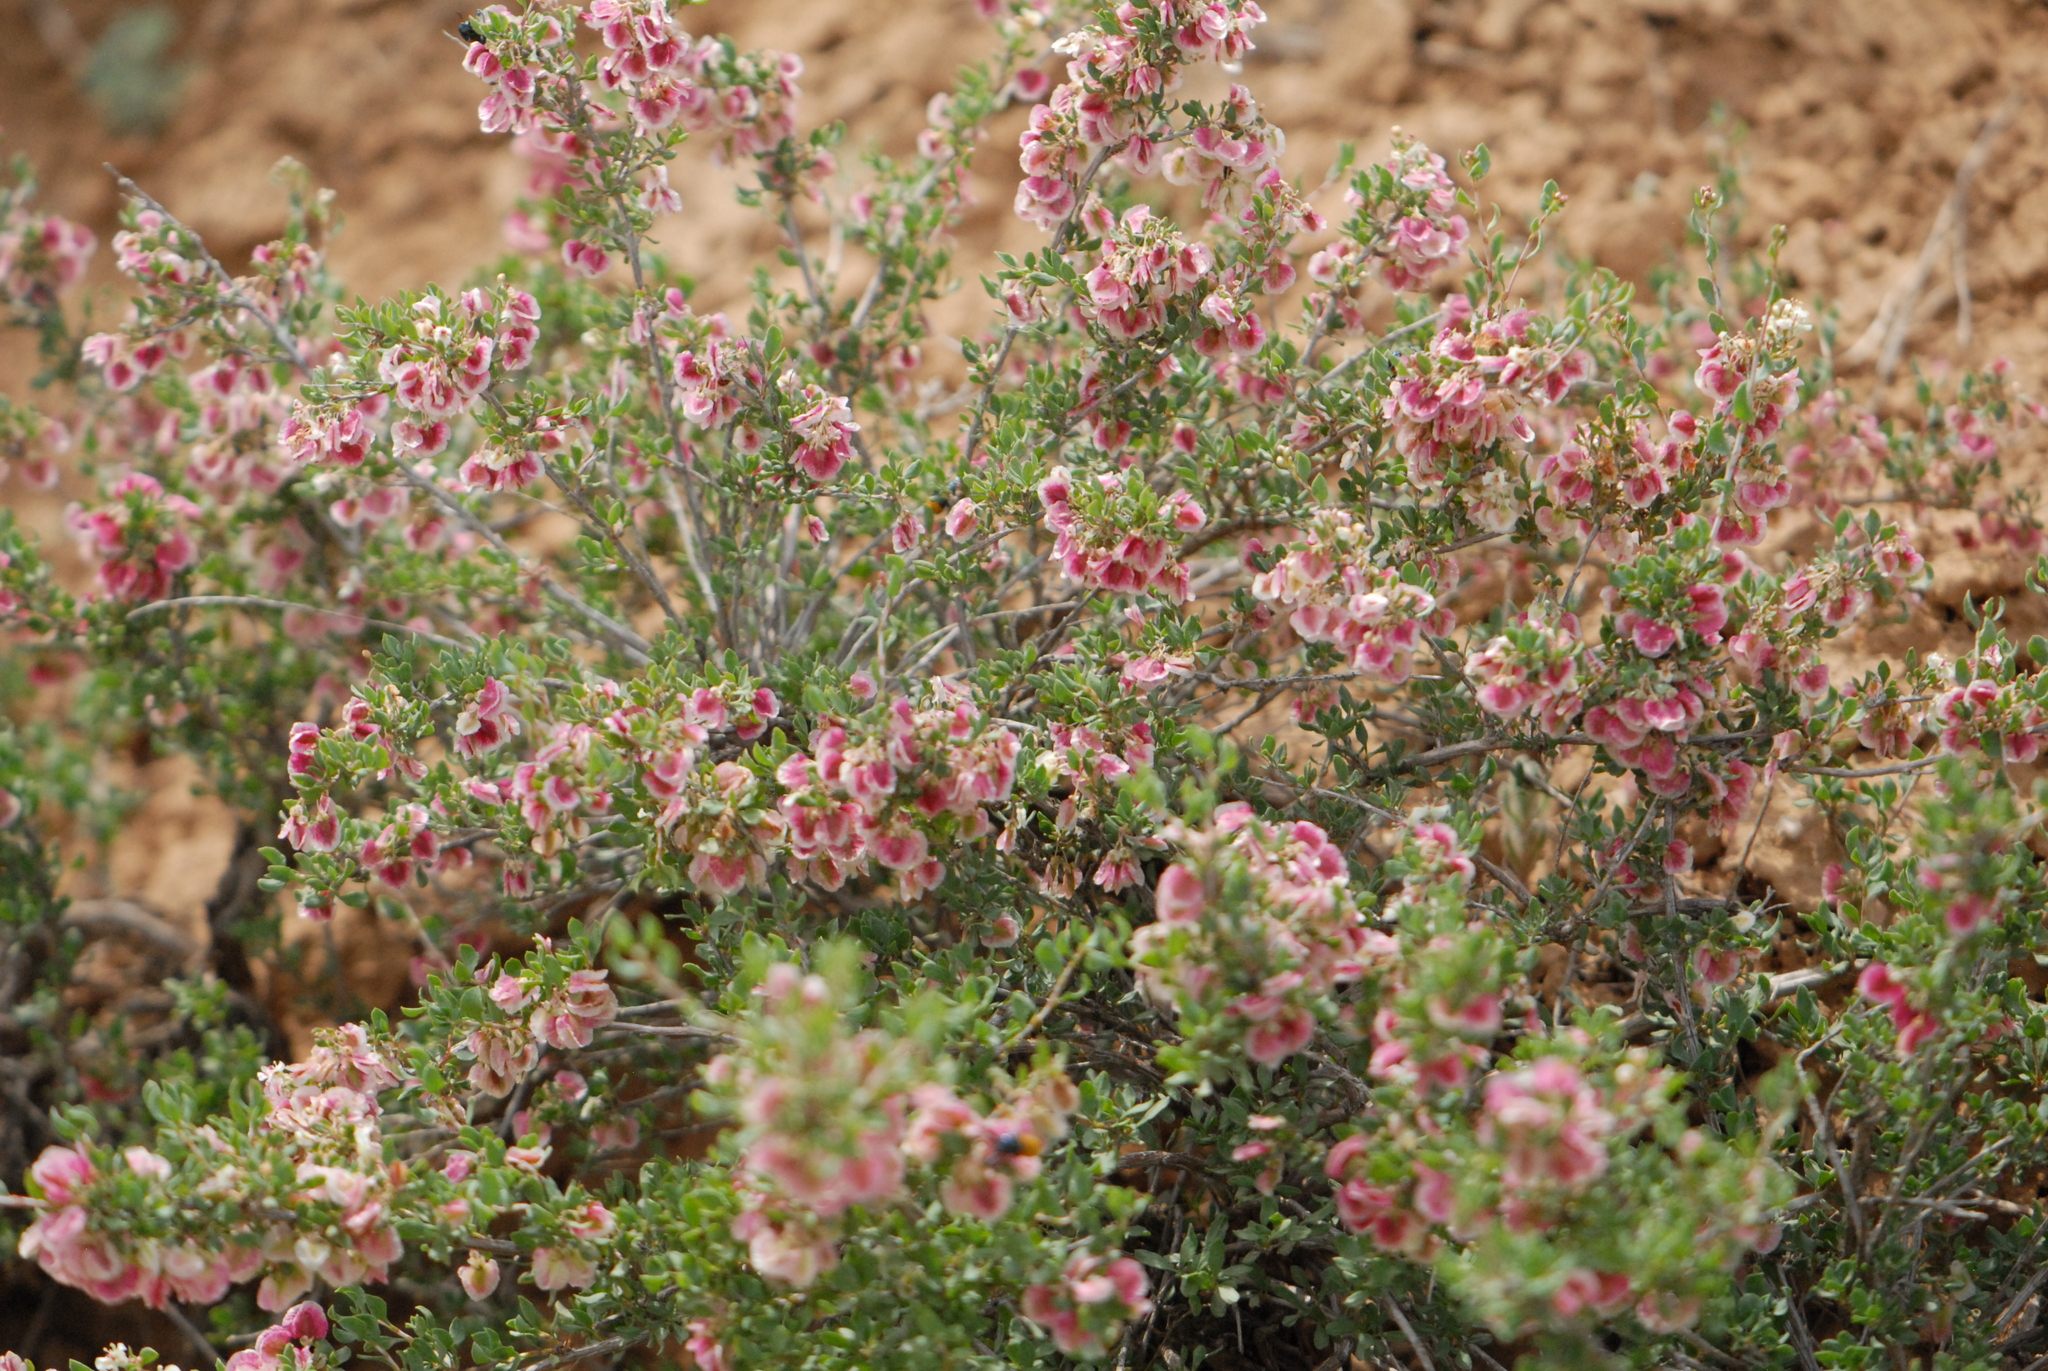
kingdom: Plantae
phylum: Tracheophyta
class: Magnoliopsida
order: Caryophyllales
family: Polygonaceae
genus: Atraphaxis
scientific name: Atraphaxis replicata
